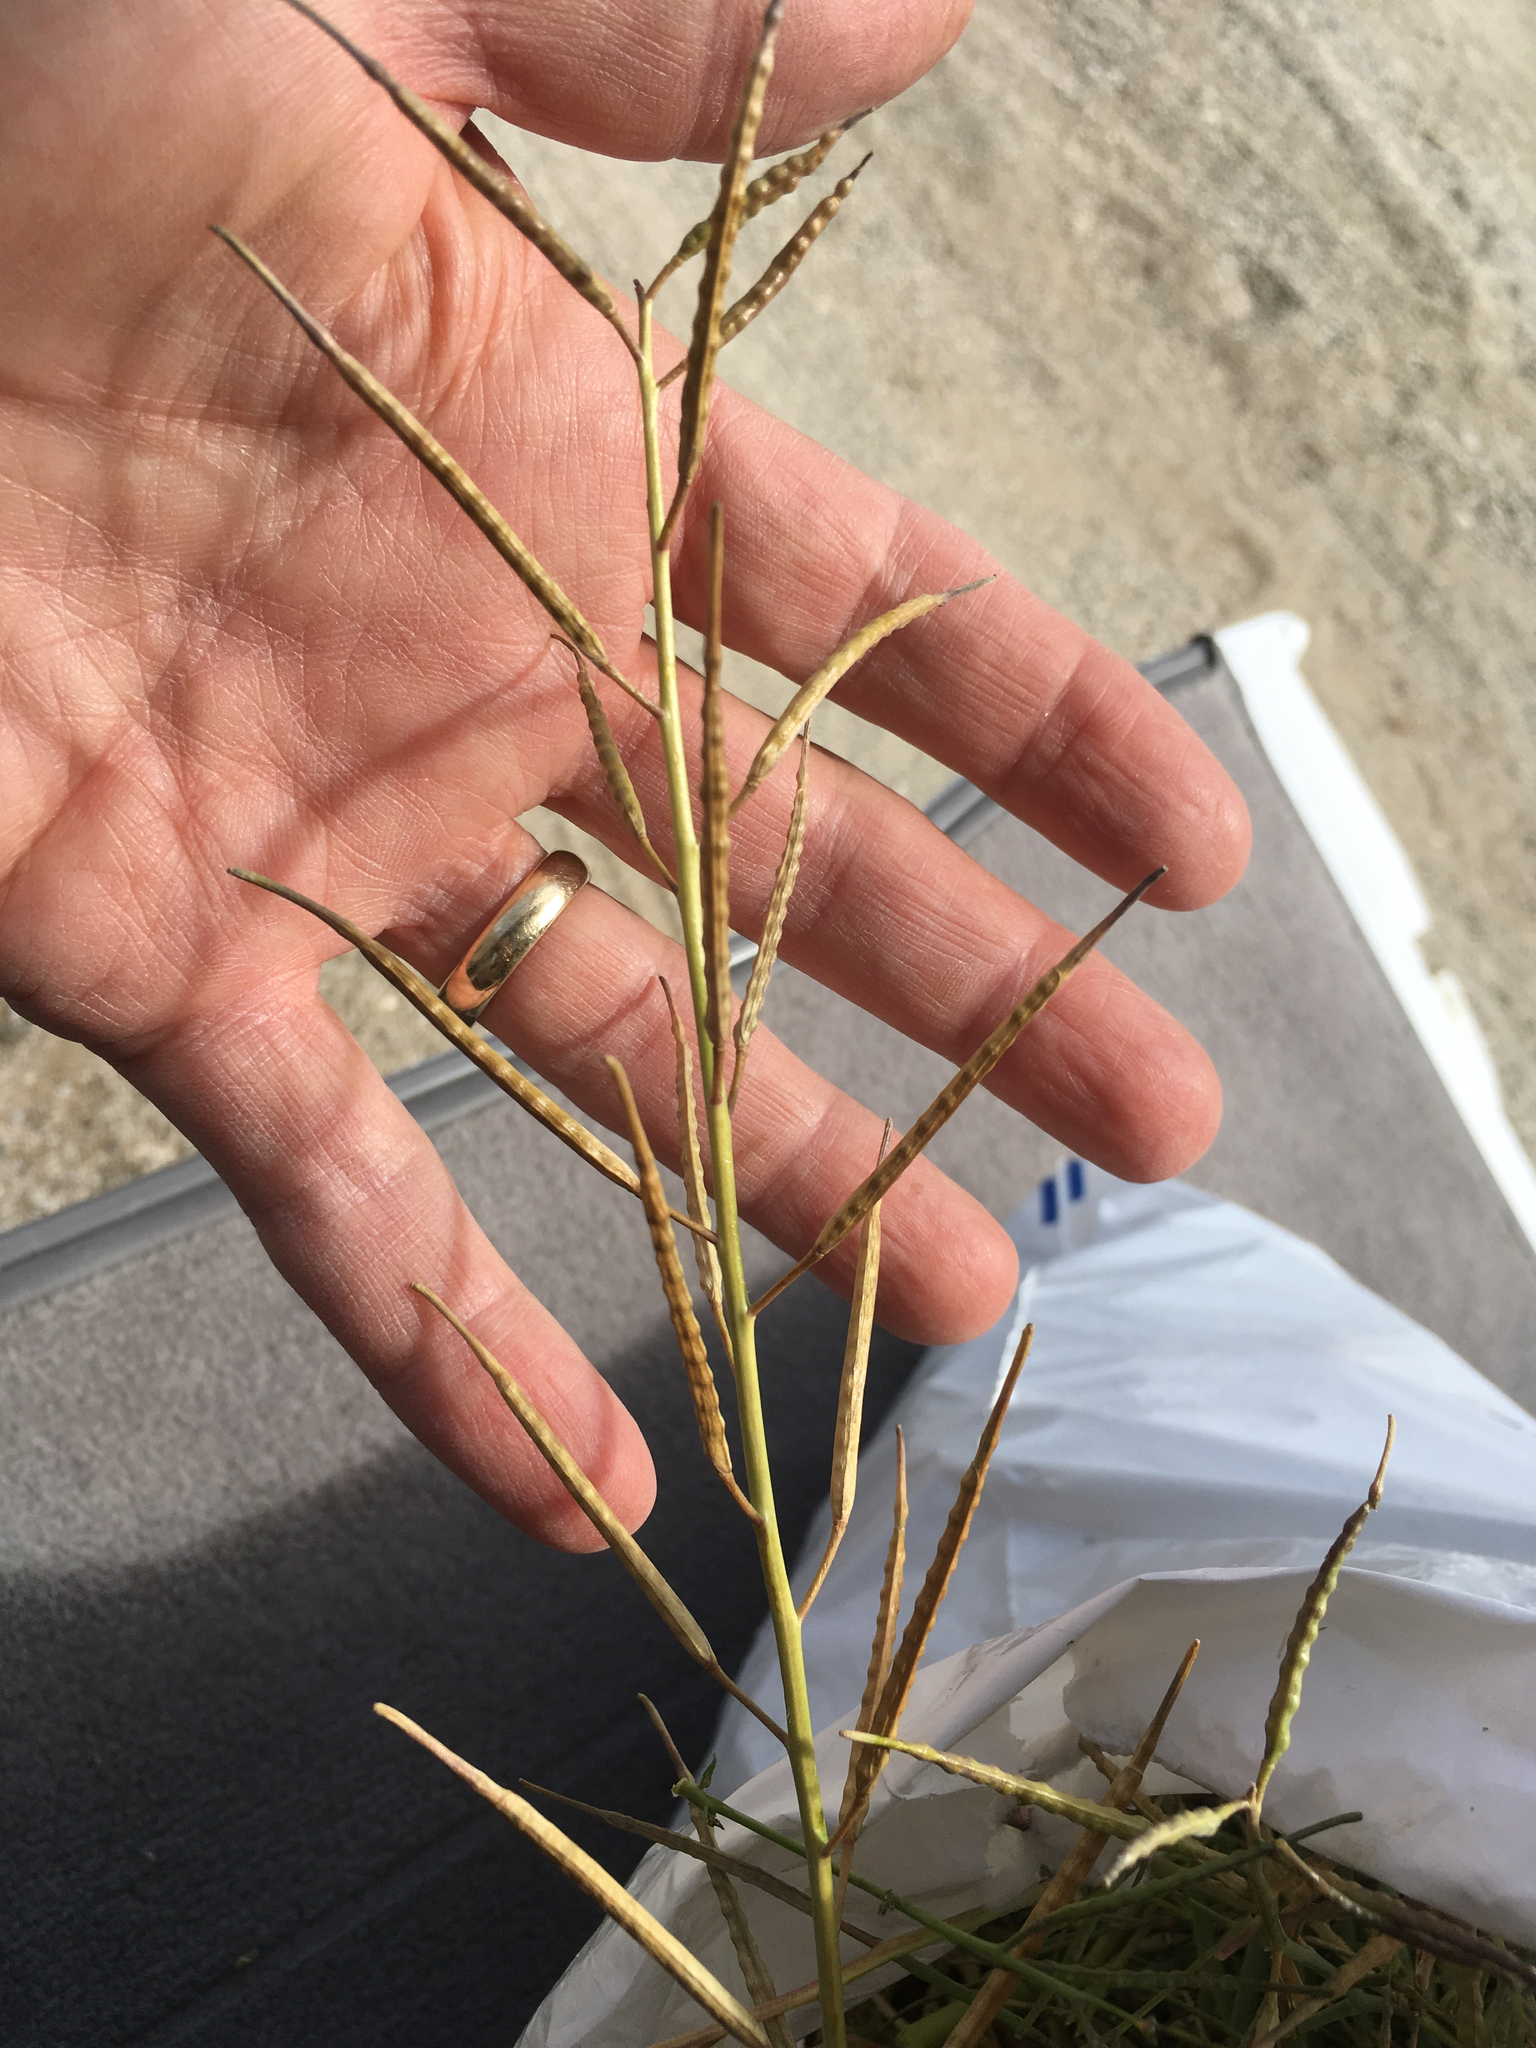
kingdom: Plantae
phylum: Tracheophyta
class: Magnoliopsida
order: Brassicales
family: Brassicaceae
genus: Brassica
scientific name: Brassica tournefortii
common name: Pale cabbage
